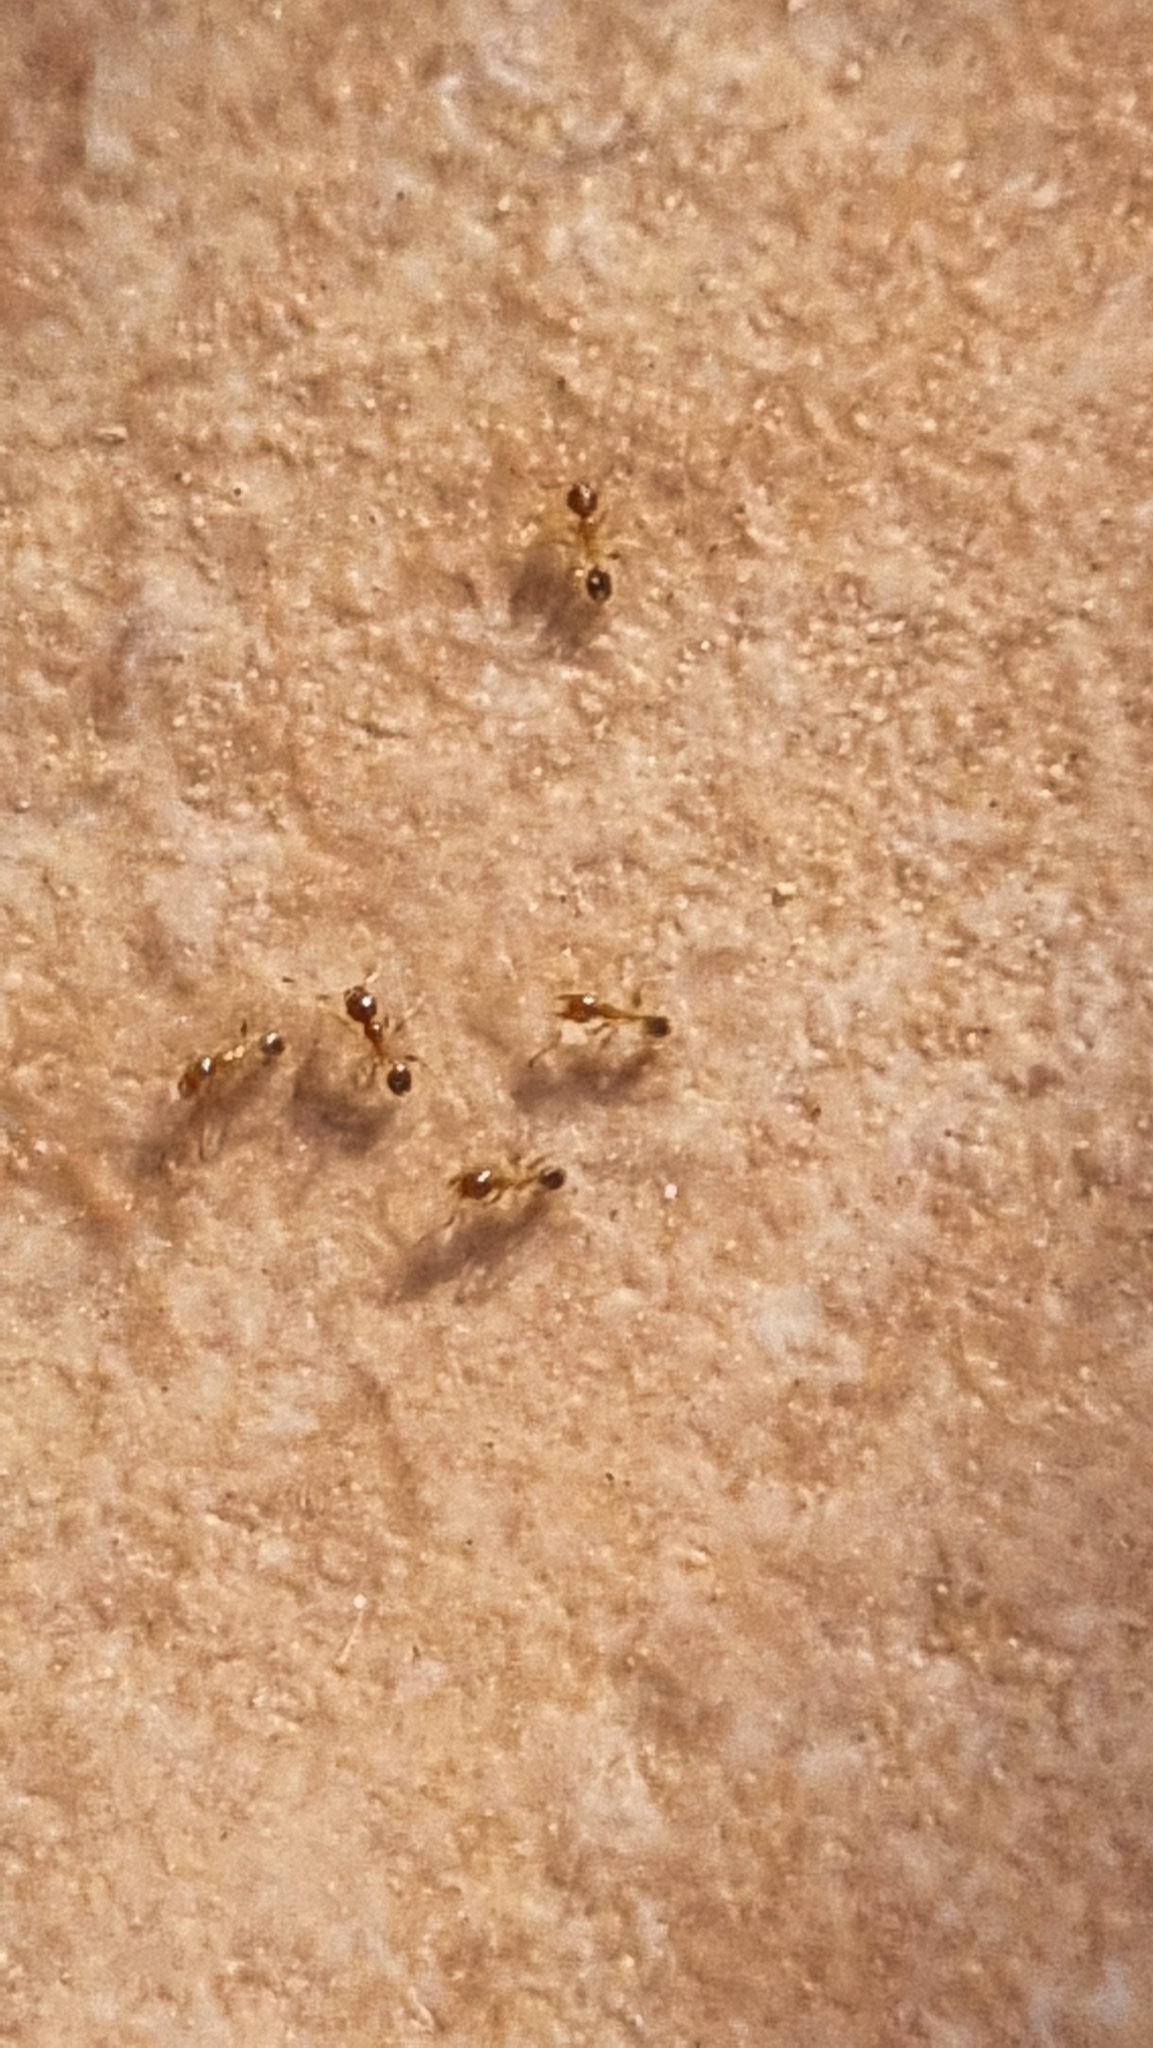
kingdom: Animalia
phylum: Arthropoda
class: Insecta
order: Hymenoptera
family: Formicidae
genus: Pheidole
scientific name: Pheidole pallidula
